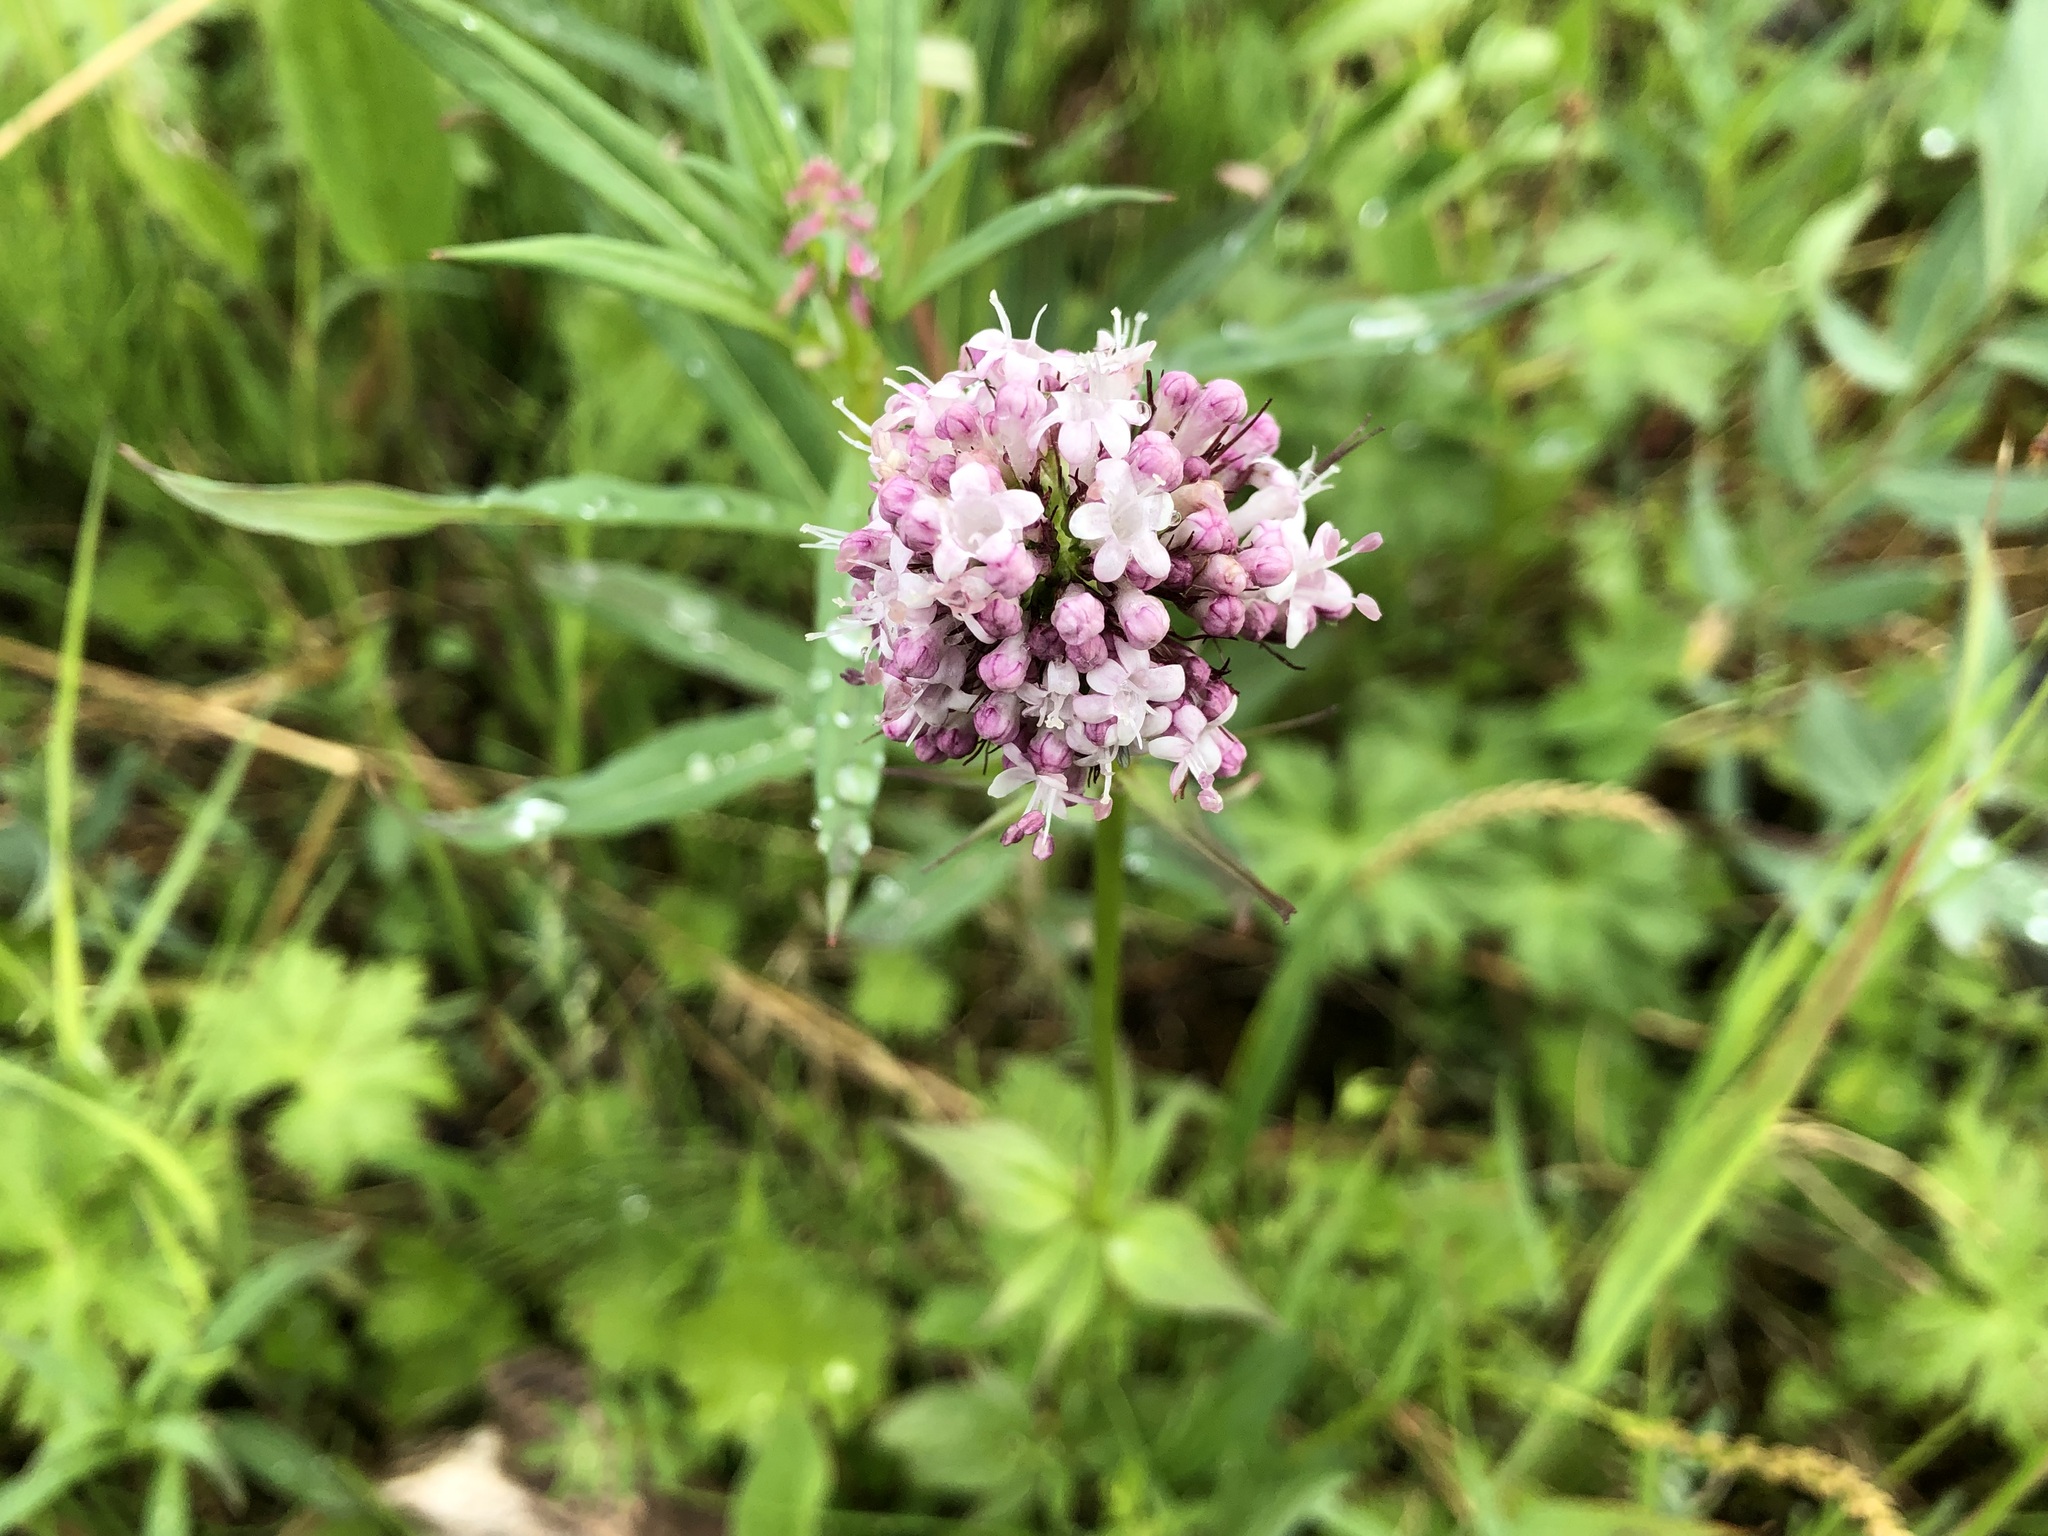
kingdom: Plantae
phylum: Tracheophyta
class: Magnoliopsida
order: Dipsacales
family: Caprifoliaceae
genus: Valeriana
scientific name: Valeriana capitata
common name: Capitate valerian
